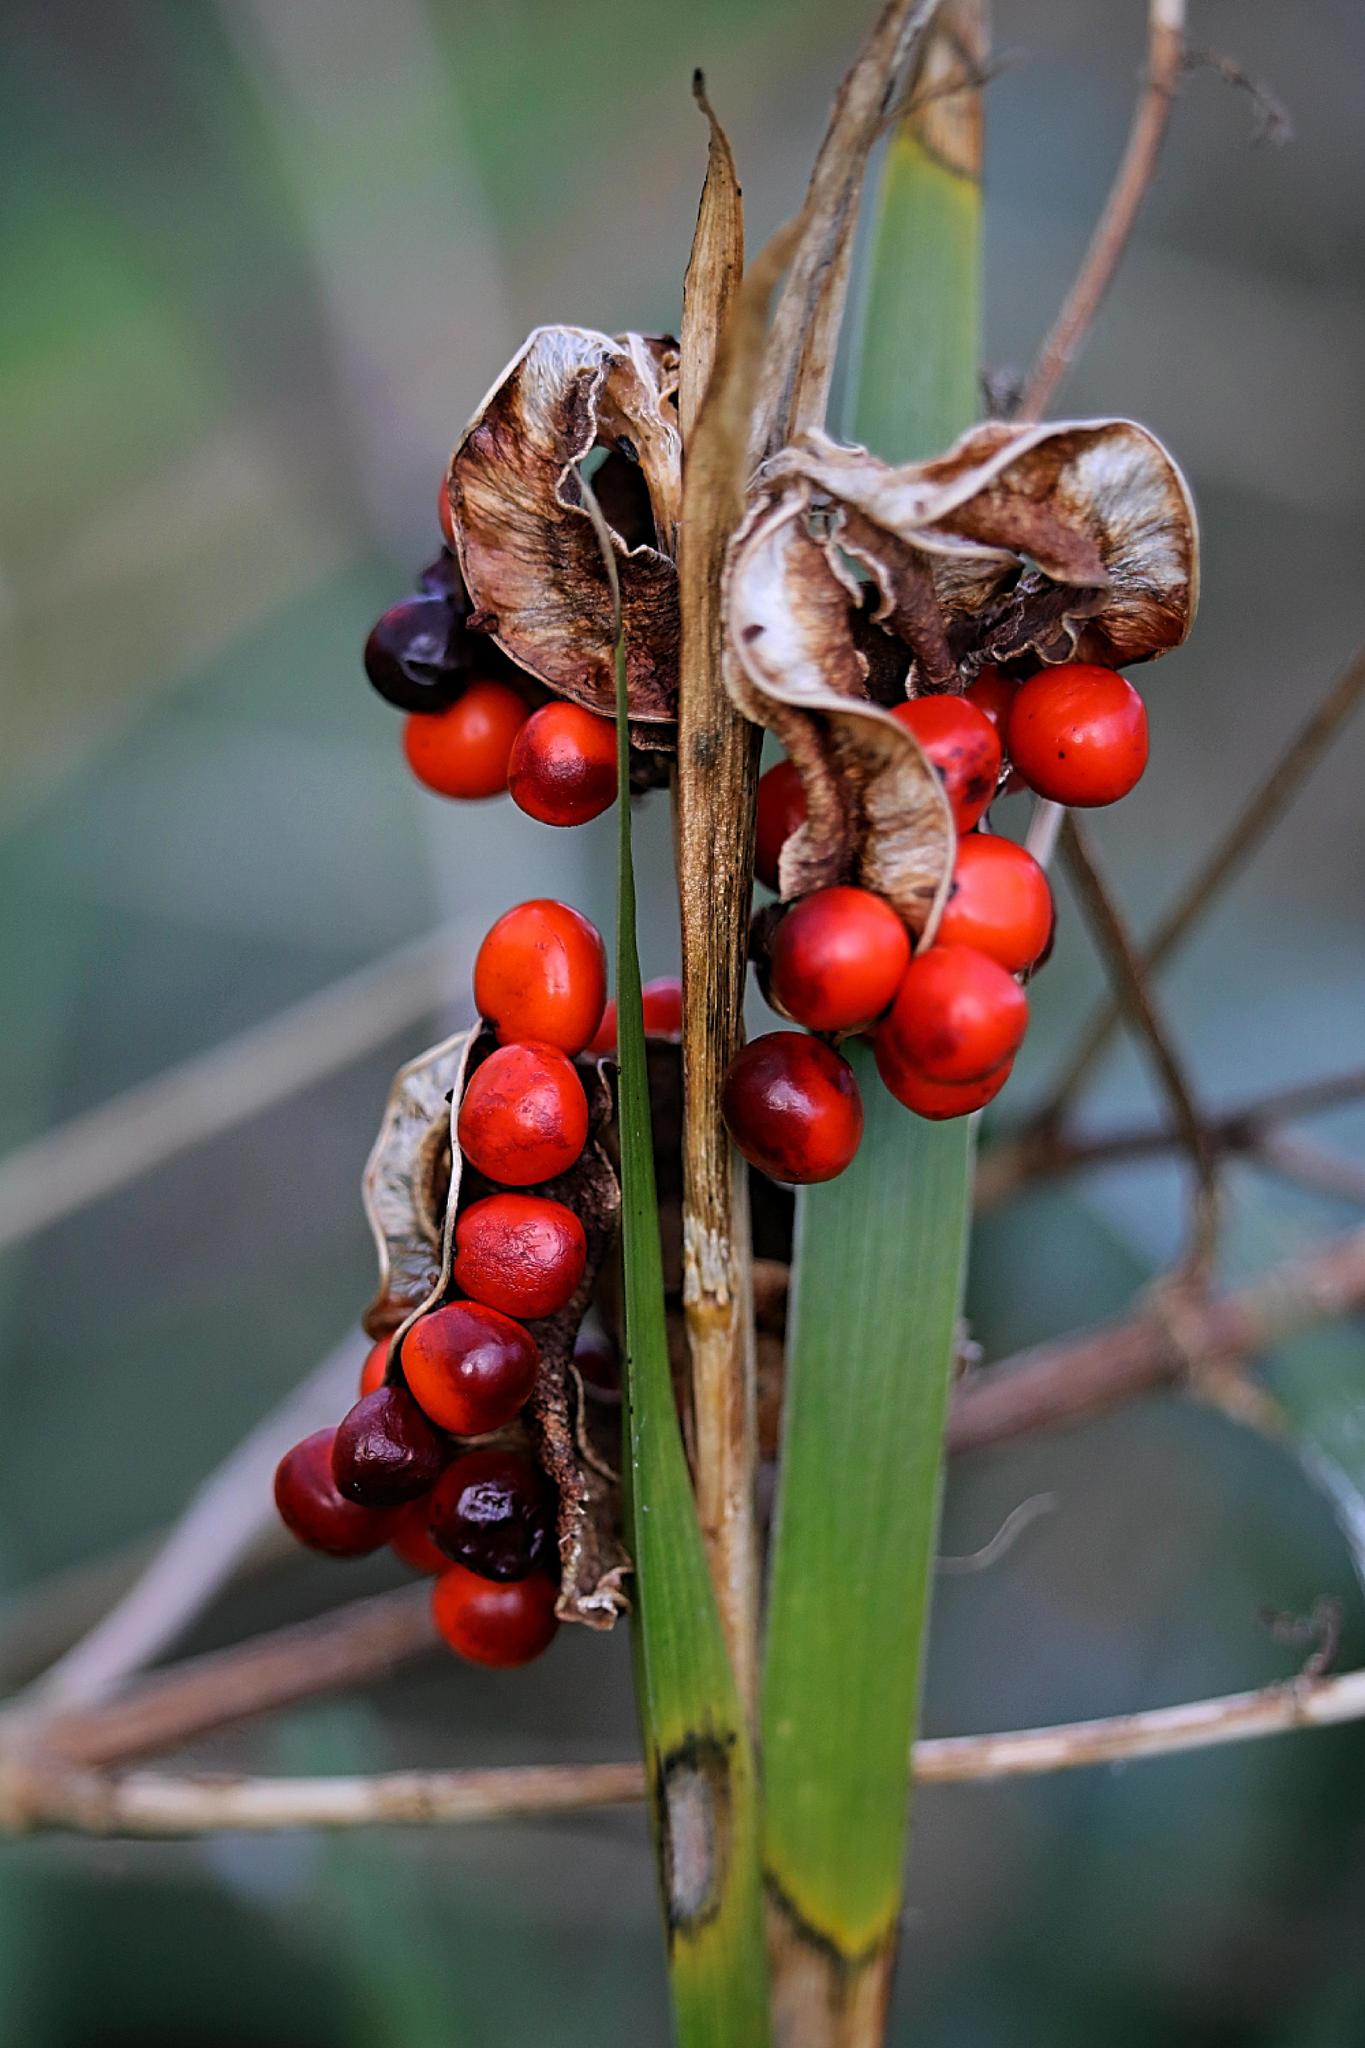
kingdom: Plantae
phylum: Tracheophyta
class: Liliopsida
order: Asparagales
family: Iridaceae
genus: Iris
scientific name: Iris foetidissima
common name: Stinking iris
